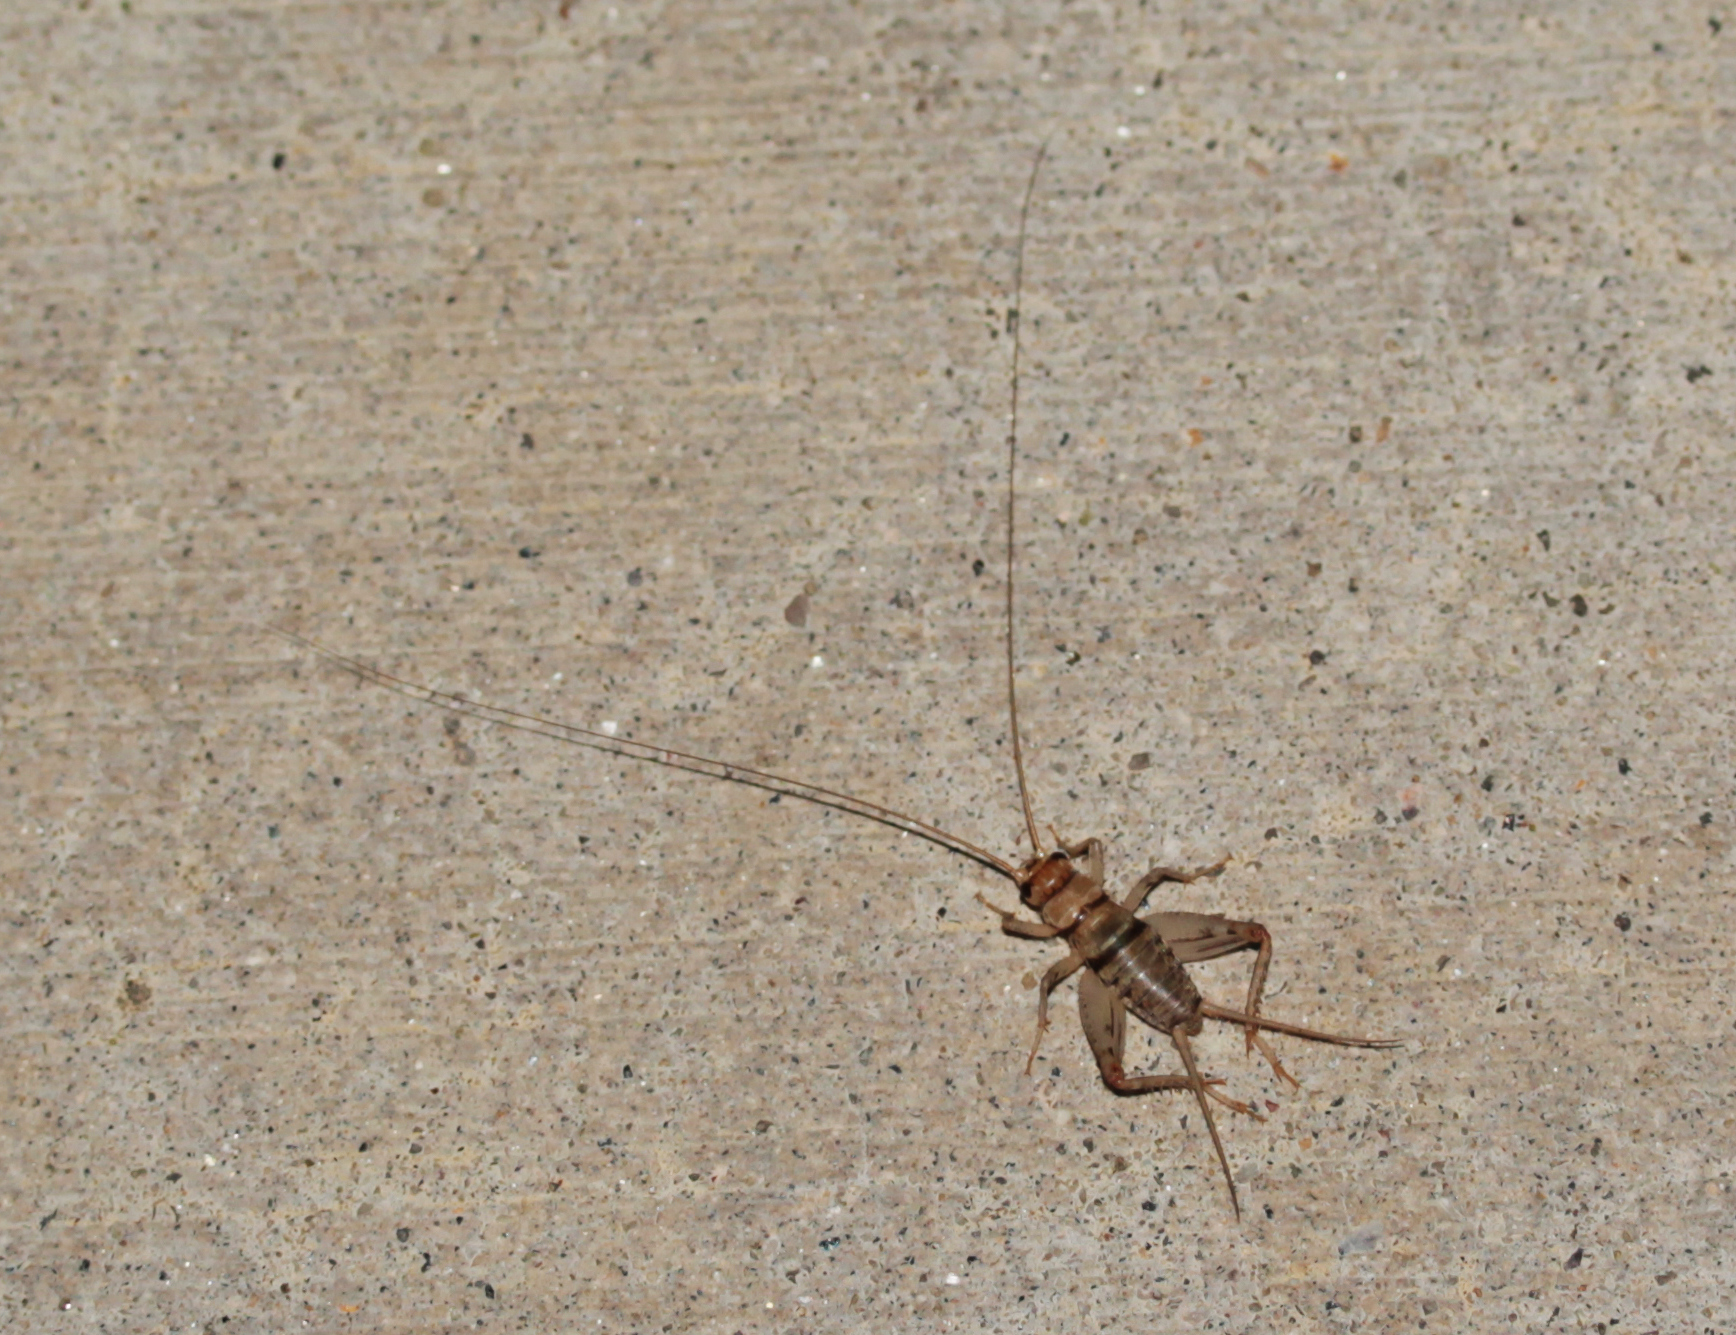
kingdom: Animalia
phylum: Arthropoda
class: Insecta
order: Orthoptera
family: Gryllidae
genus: Gryllodes
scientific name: Gryllodes sigillatus
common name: Tropical house cricket
